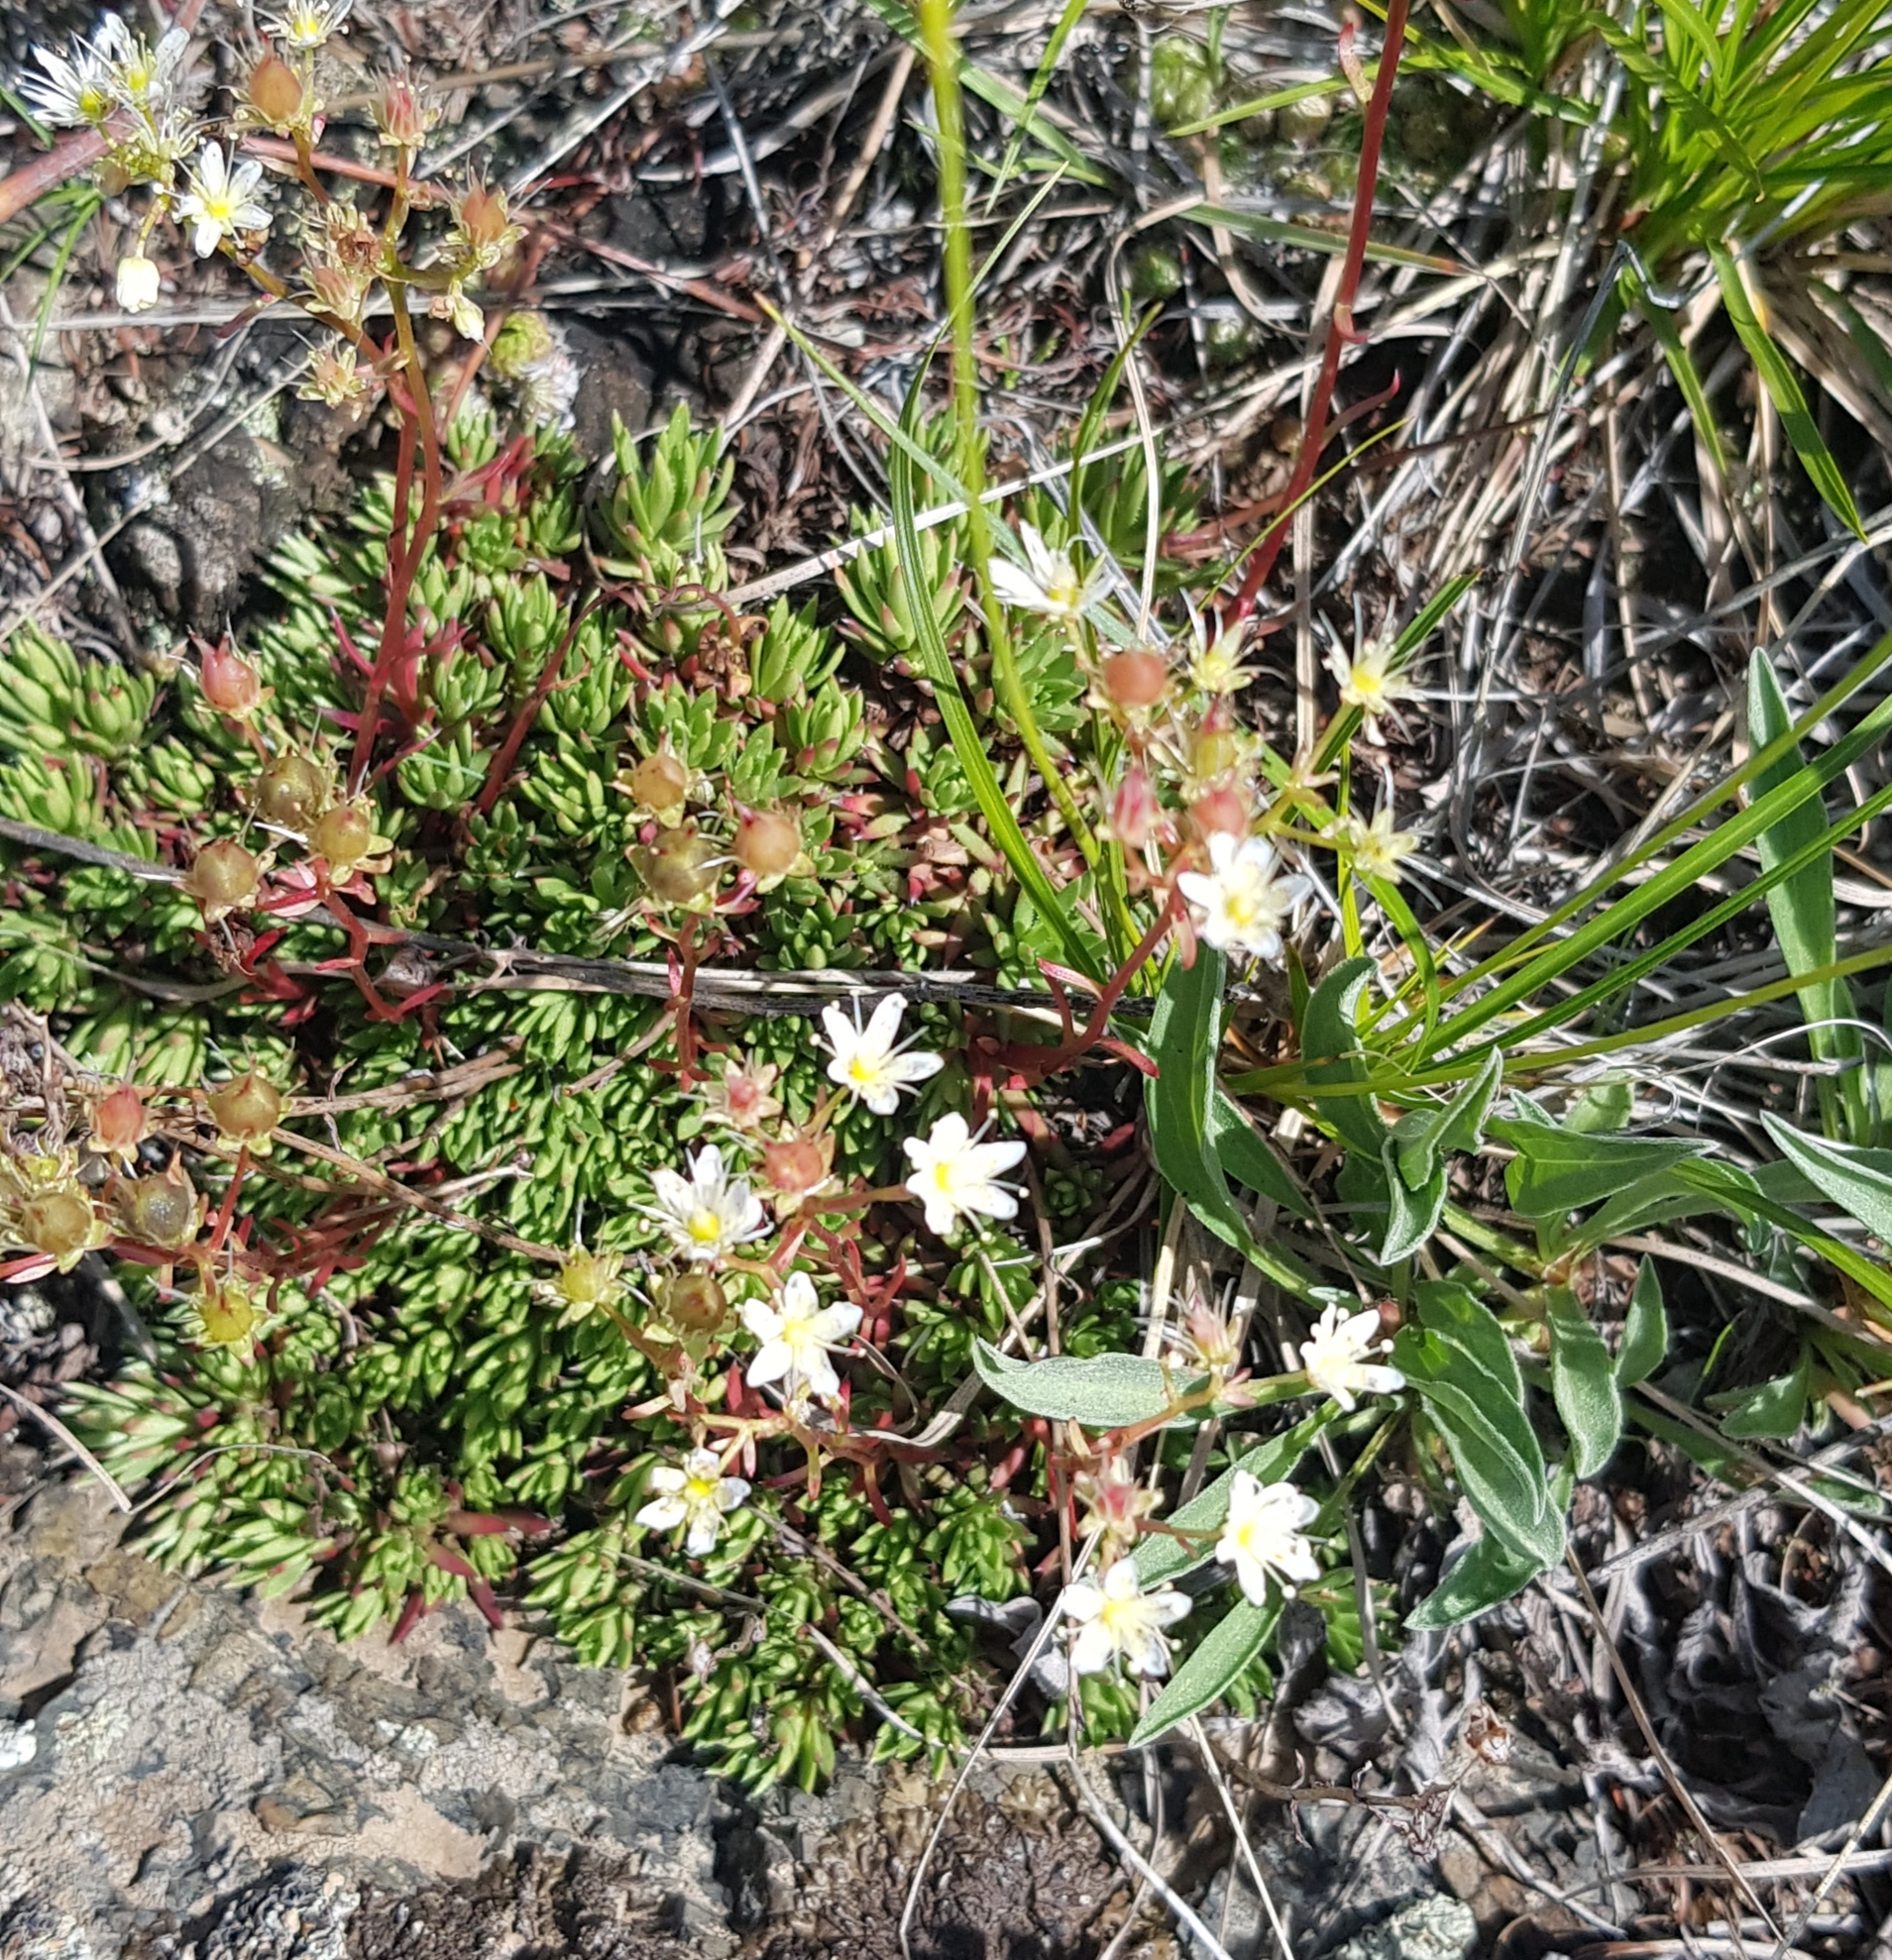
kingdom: Plantae
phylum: Tracheophyta
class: Magnoliopsida
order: Saxifragales
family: Saxifragaceae
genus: Saxifraga
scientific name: Saxifraga
